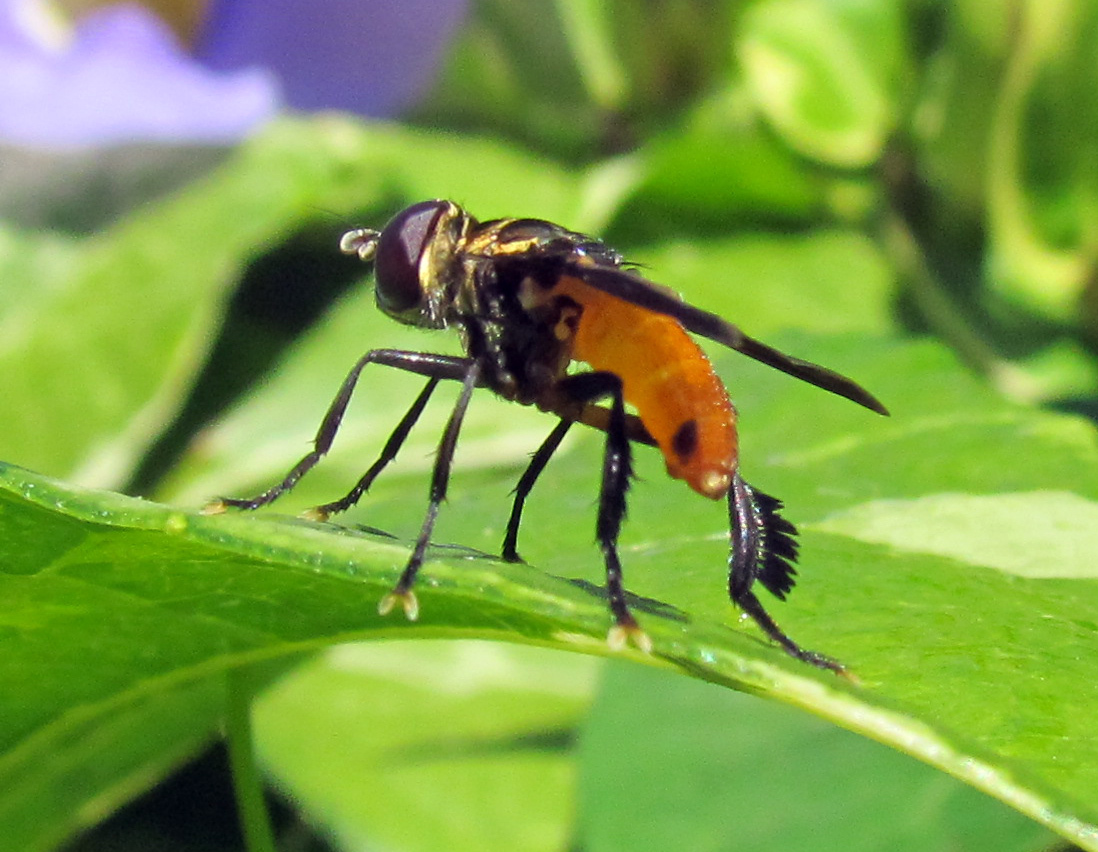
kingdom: Animalia
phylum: Arthropoda
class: Insecta
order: Diptera
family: Tachinidae
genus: Trichopoda
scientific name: Trichopoda pennipes
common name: Tachinid fly
